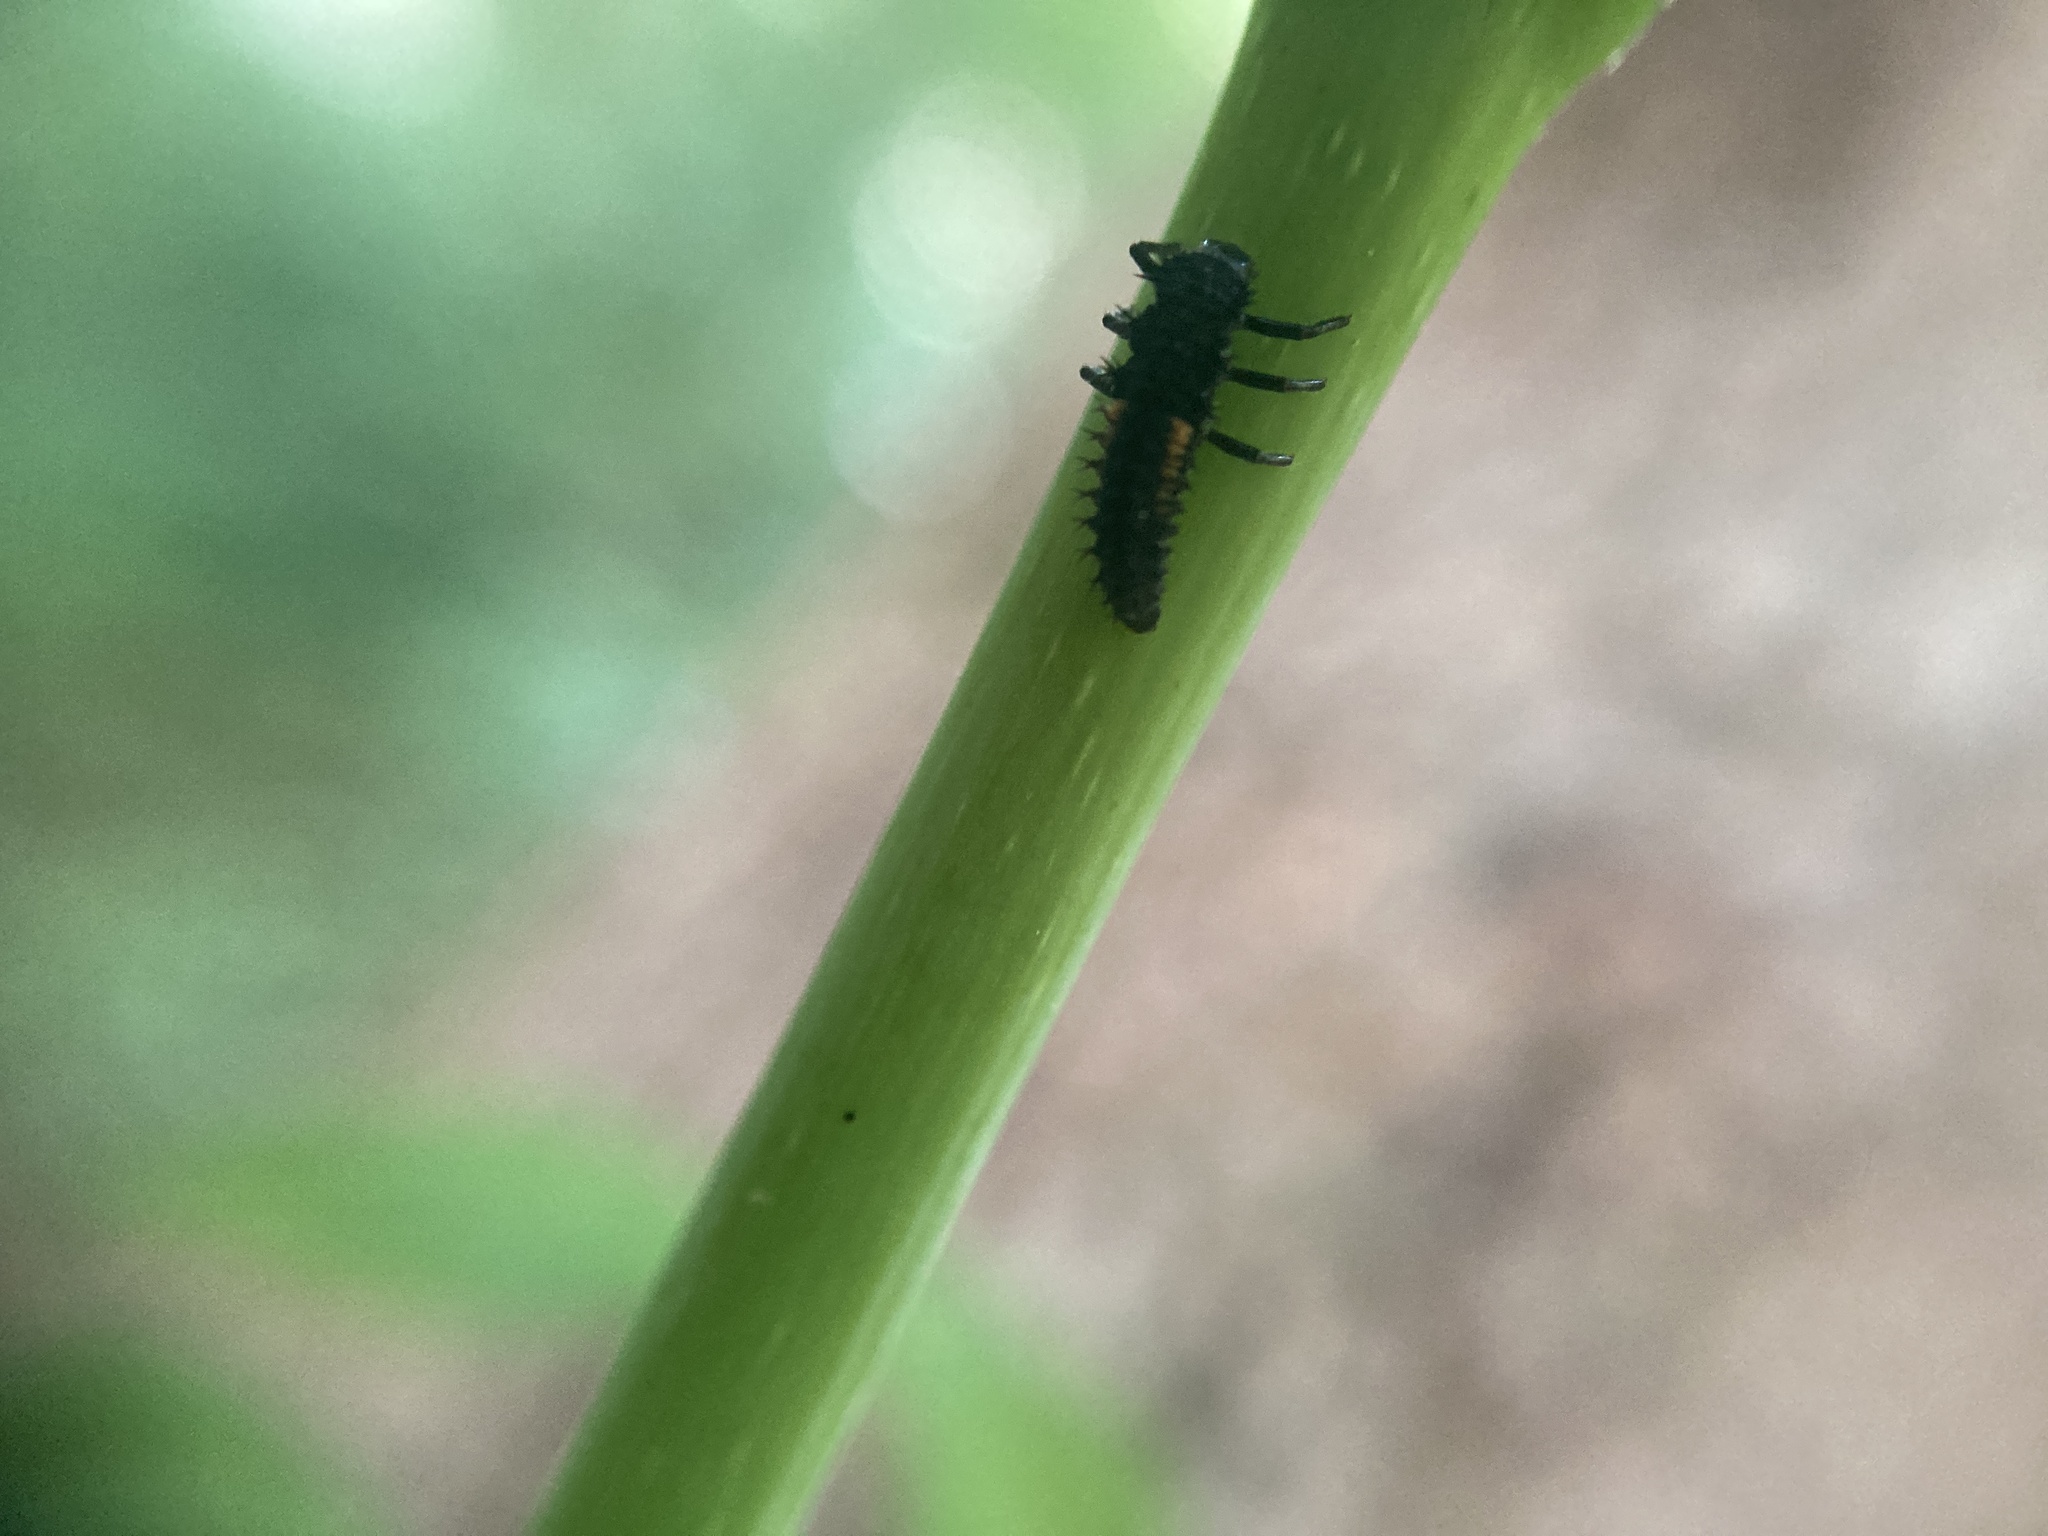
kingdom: Animalia
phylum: Arthropoda
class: Insecta
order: Coleoptera
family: Coccinellidae
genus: Harmonia
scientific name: Harmonia axyridis
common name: Harlequin ladybird
